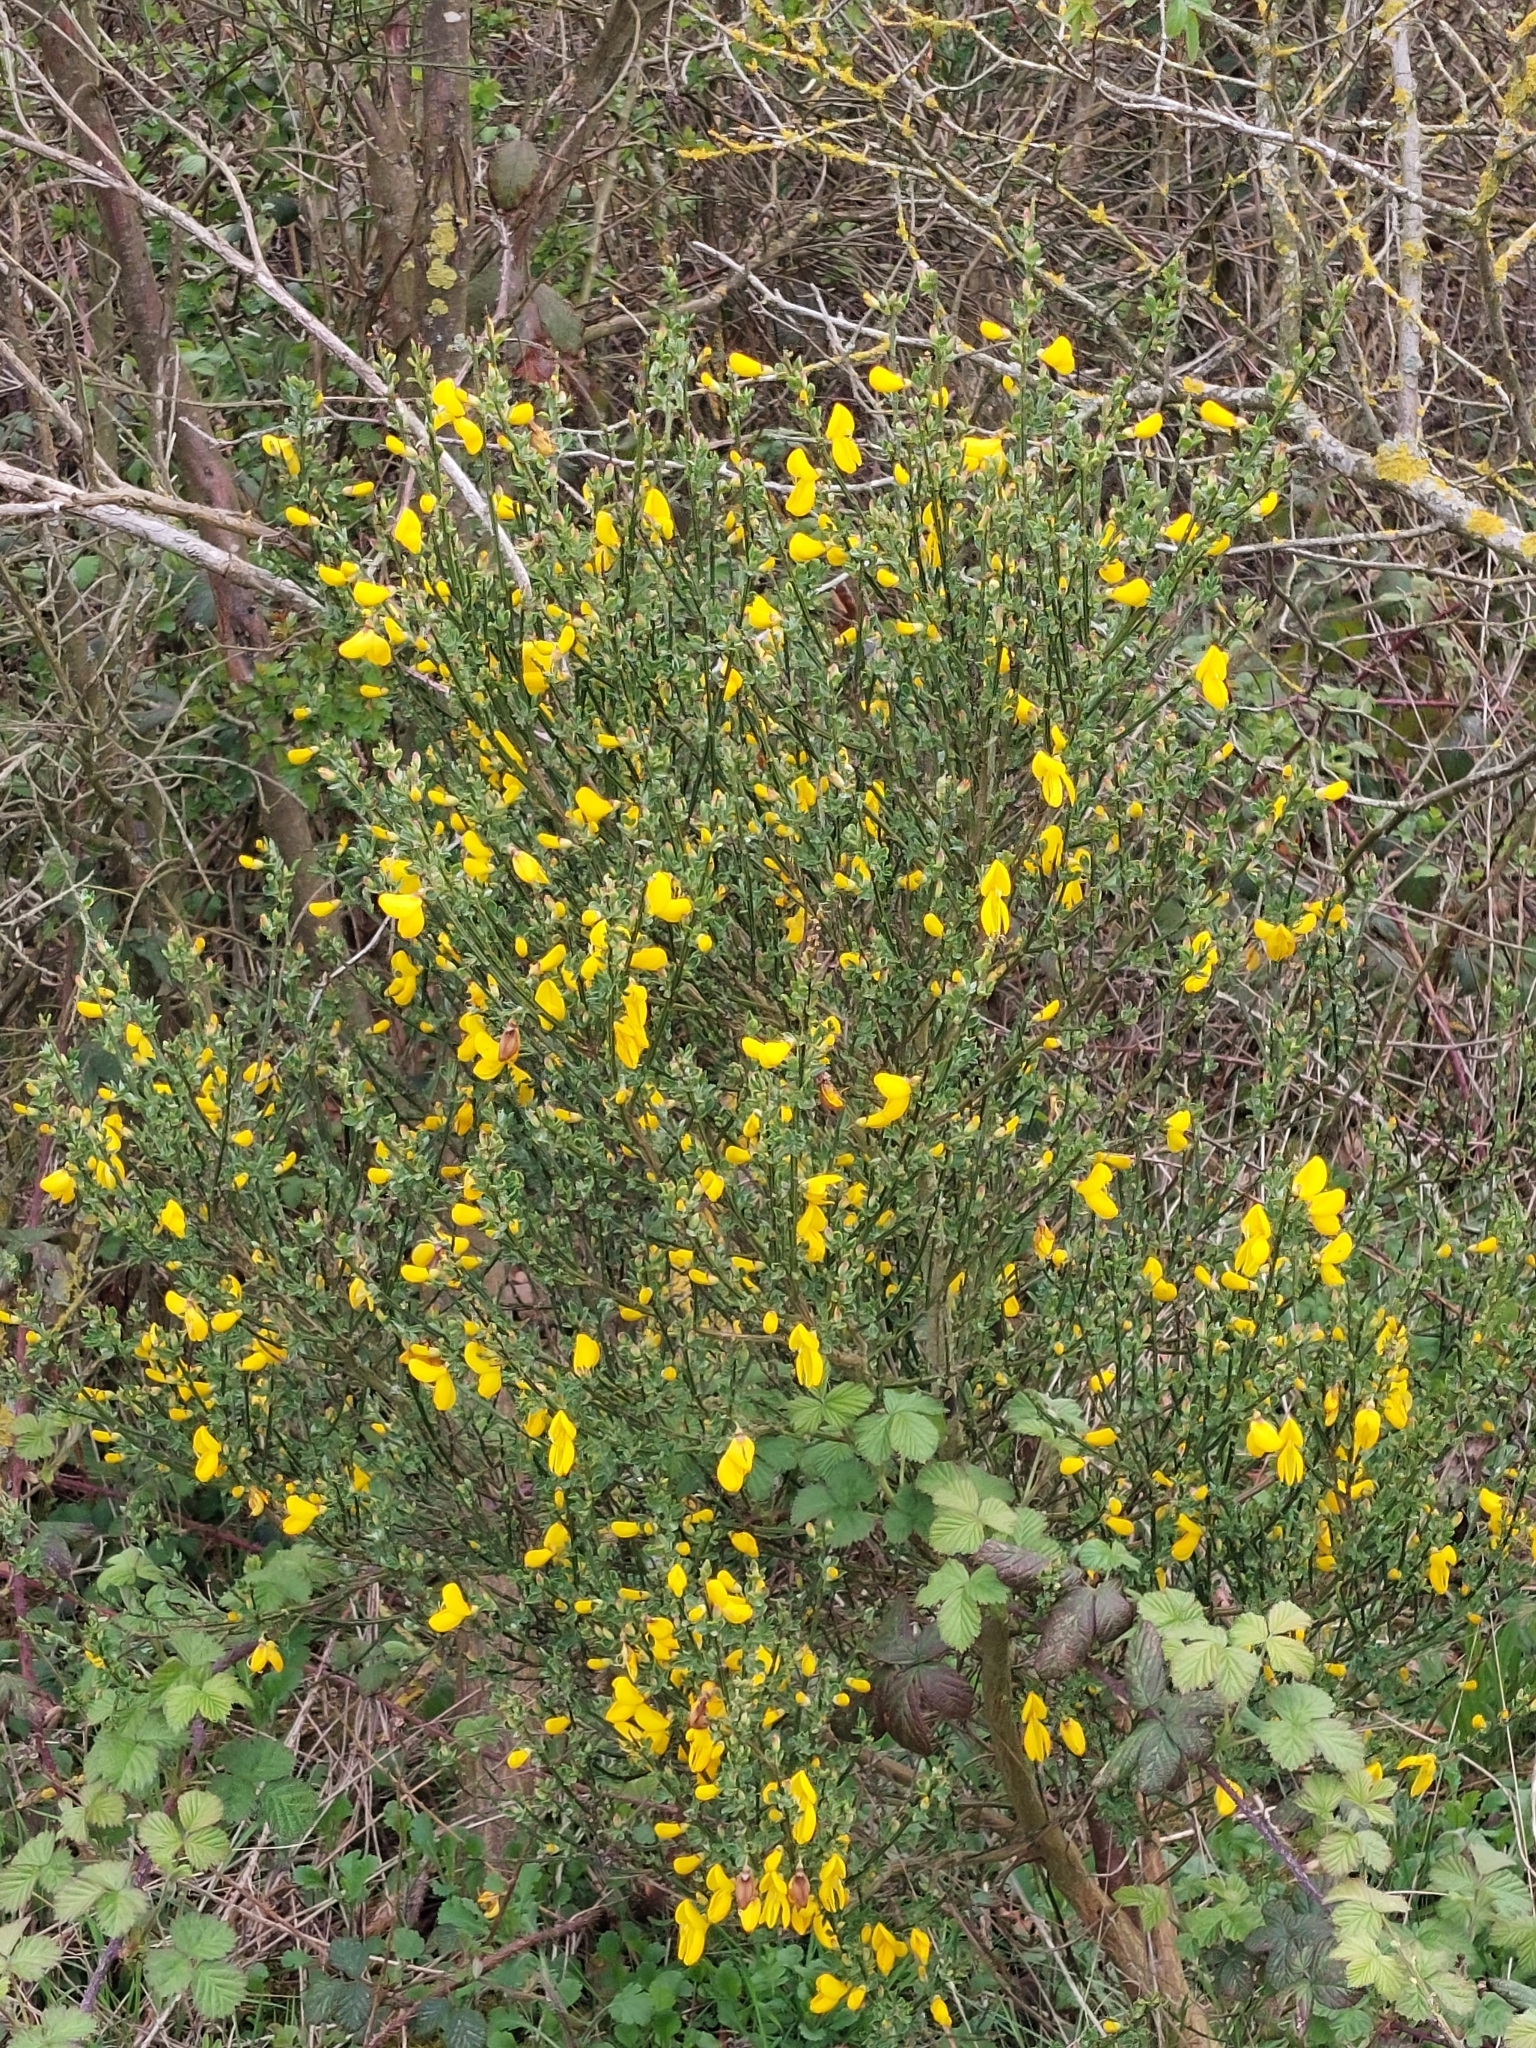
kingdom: Plantae
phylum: Tracheophyta
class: Magnoliopsida
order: Fabales
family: Fabaceae
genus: Cytisus
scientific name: Cytisus scoparius
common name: Scotch broom
